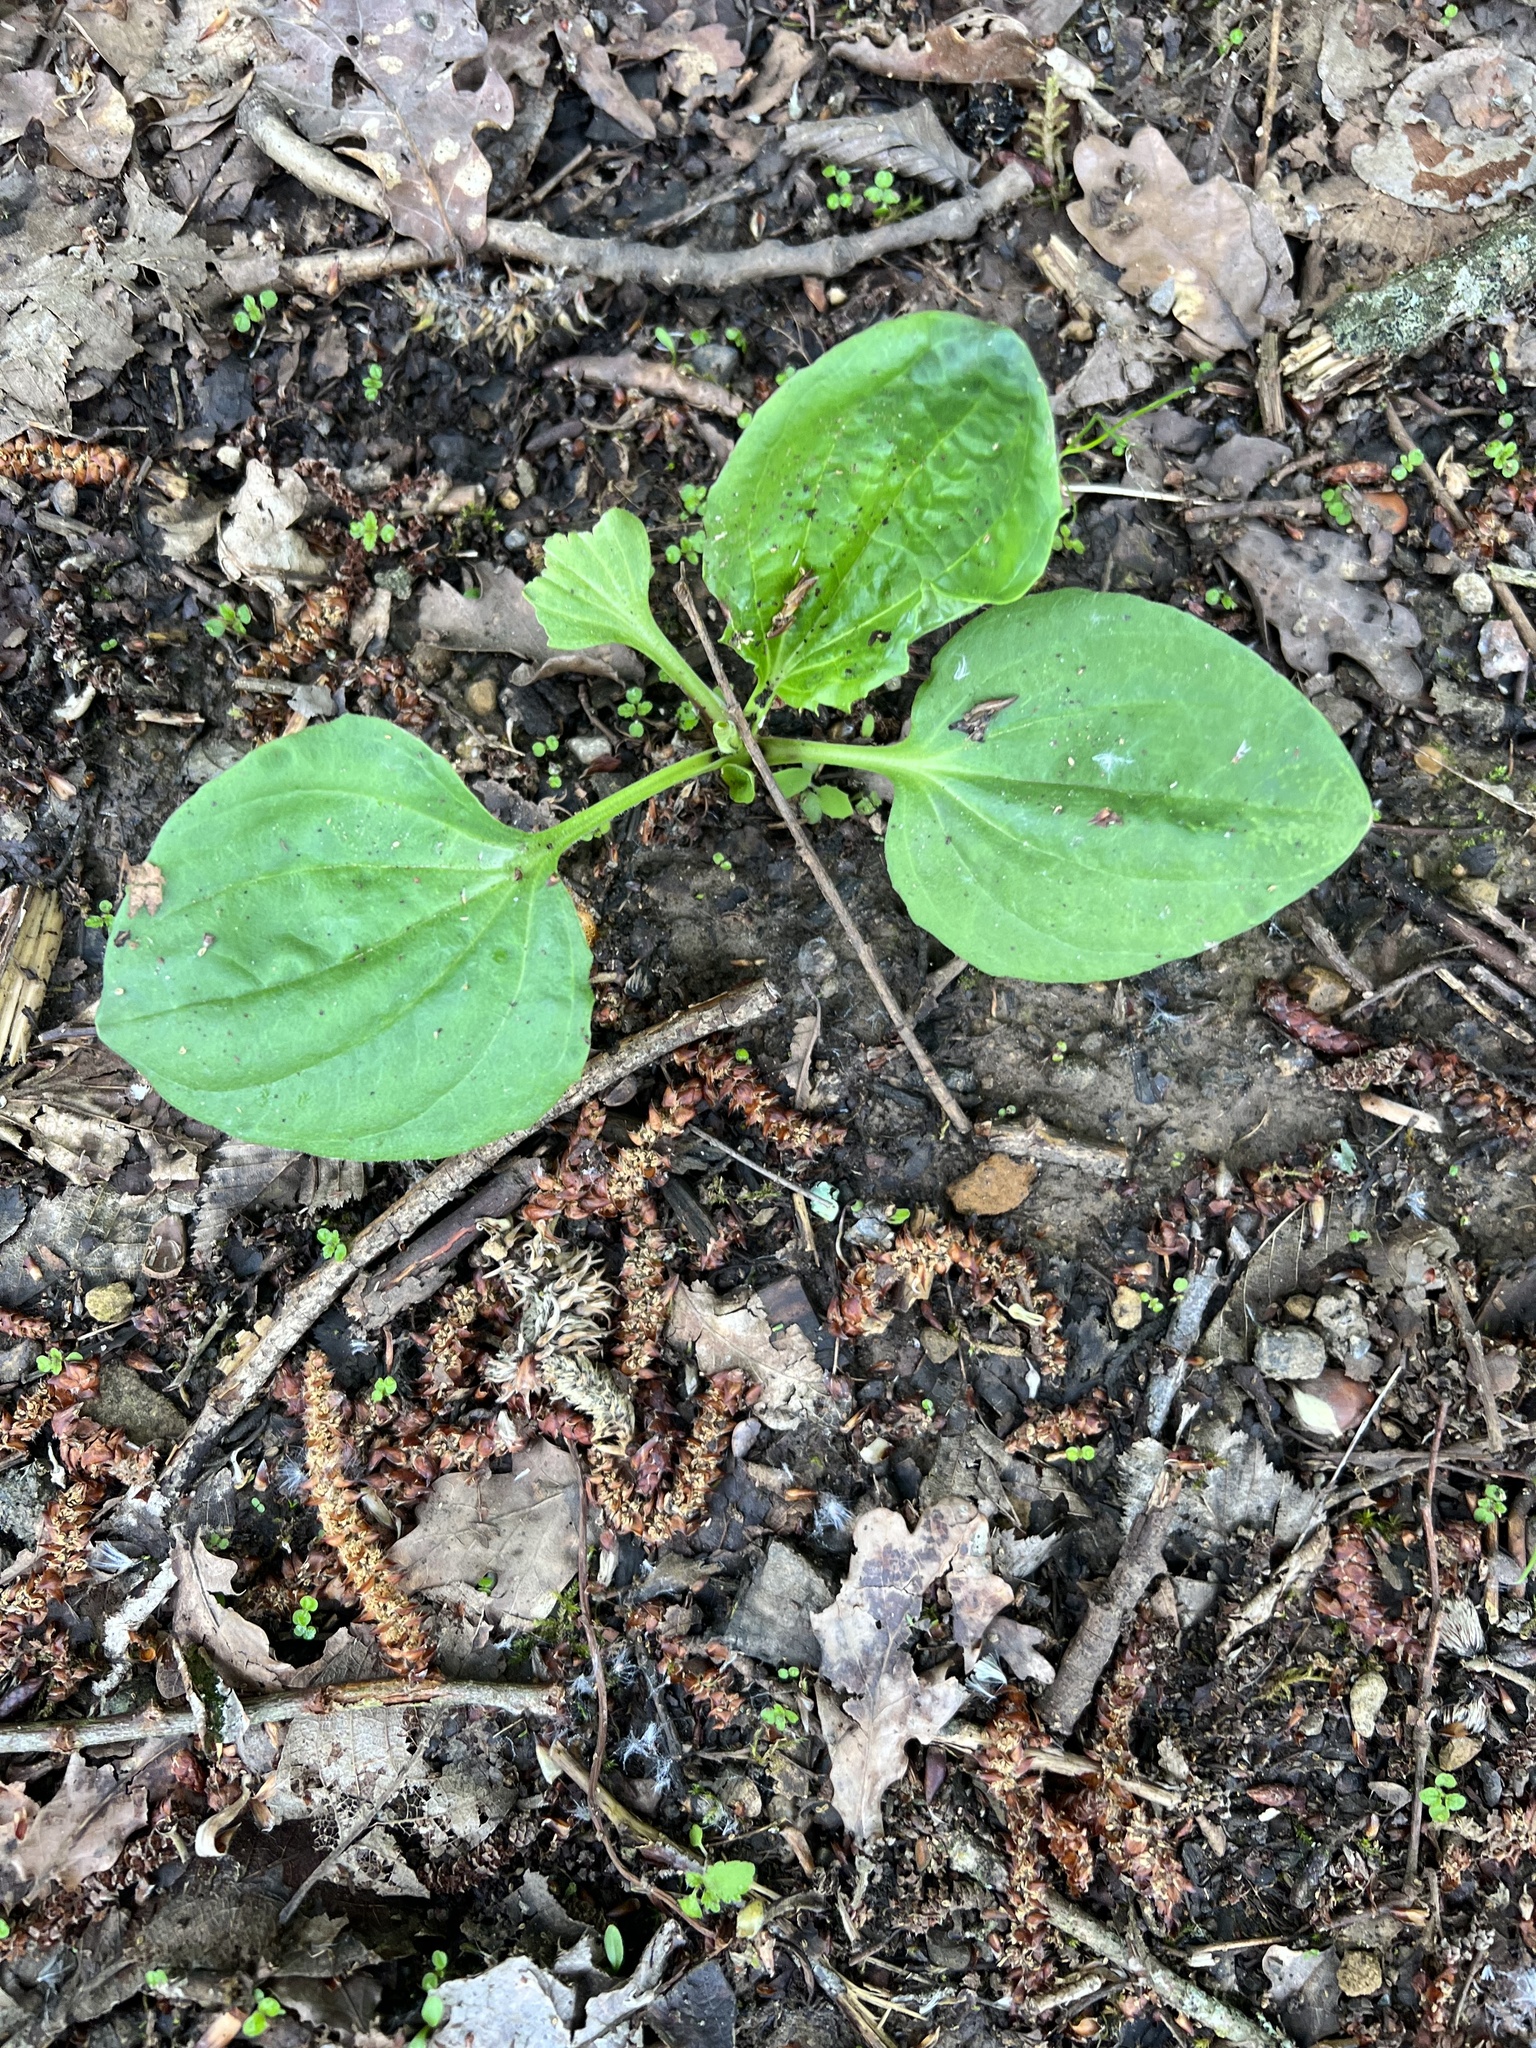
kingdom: Plantae
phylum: Tracheophyta
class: Magnoliopsida
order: Lamiales
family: Plantaginaceae
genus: Plantago
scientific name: Plantago major
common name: Common plantain
